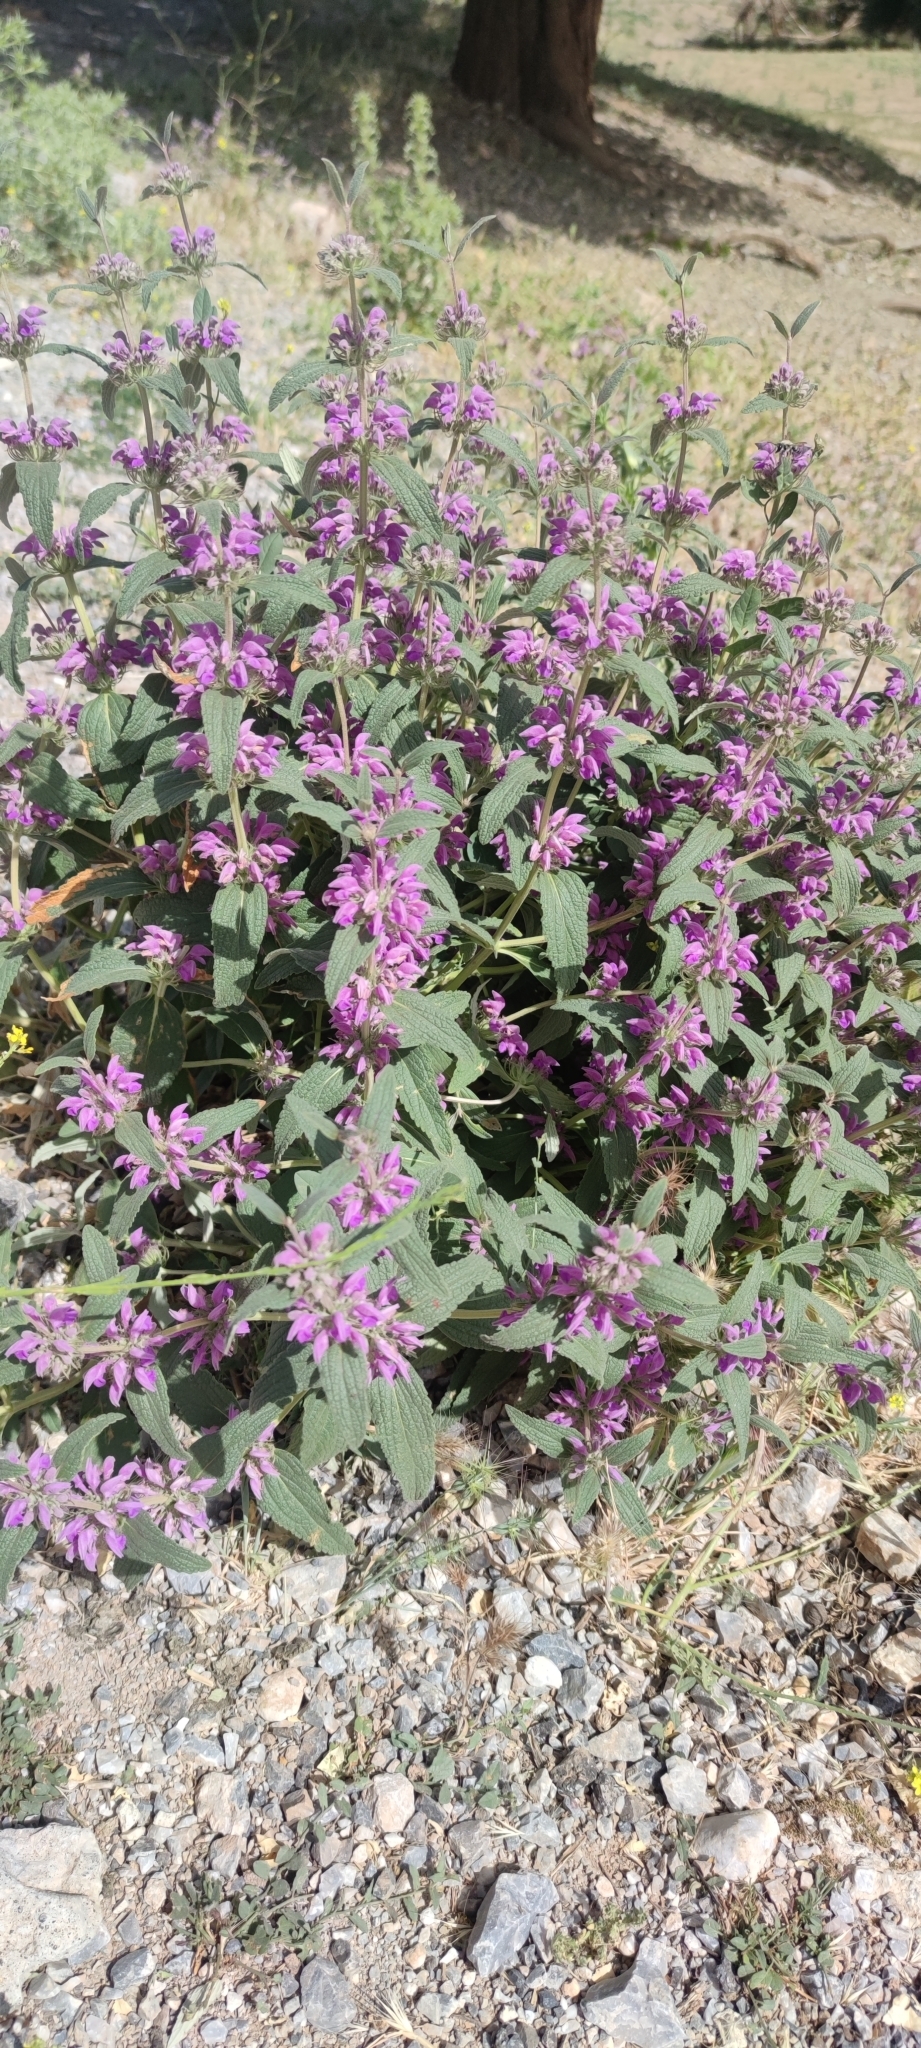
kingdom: Plantae
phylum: Tracheophyta
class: Magnoliopsida
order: Lamiales
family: Lamiaceae
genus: Phlomis
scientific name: Phlomis herba-venti
